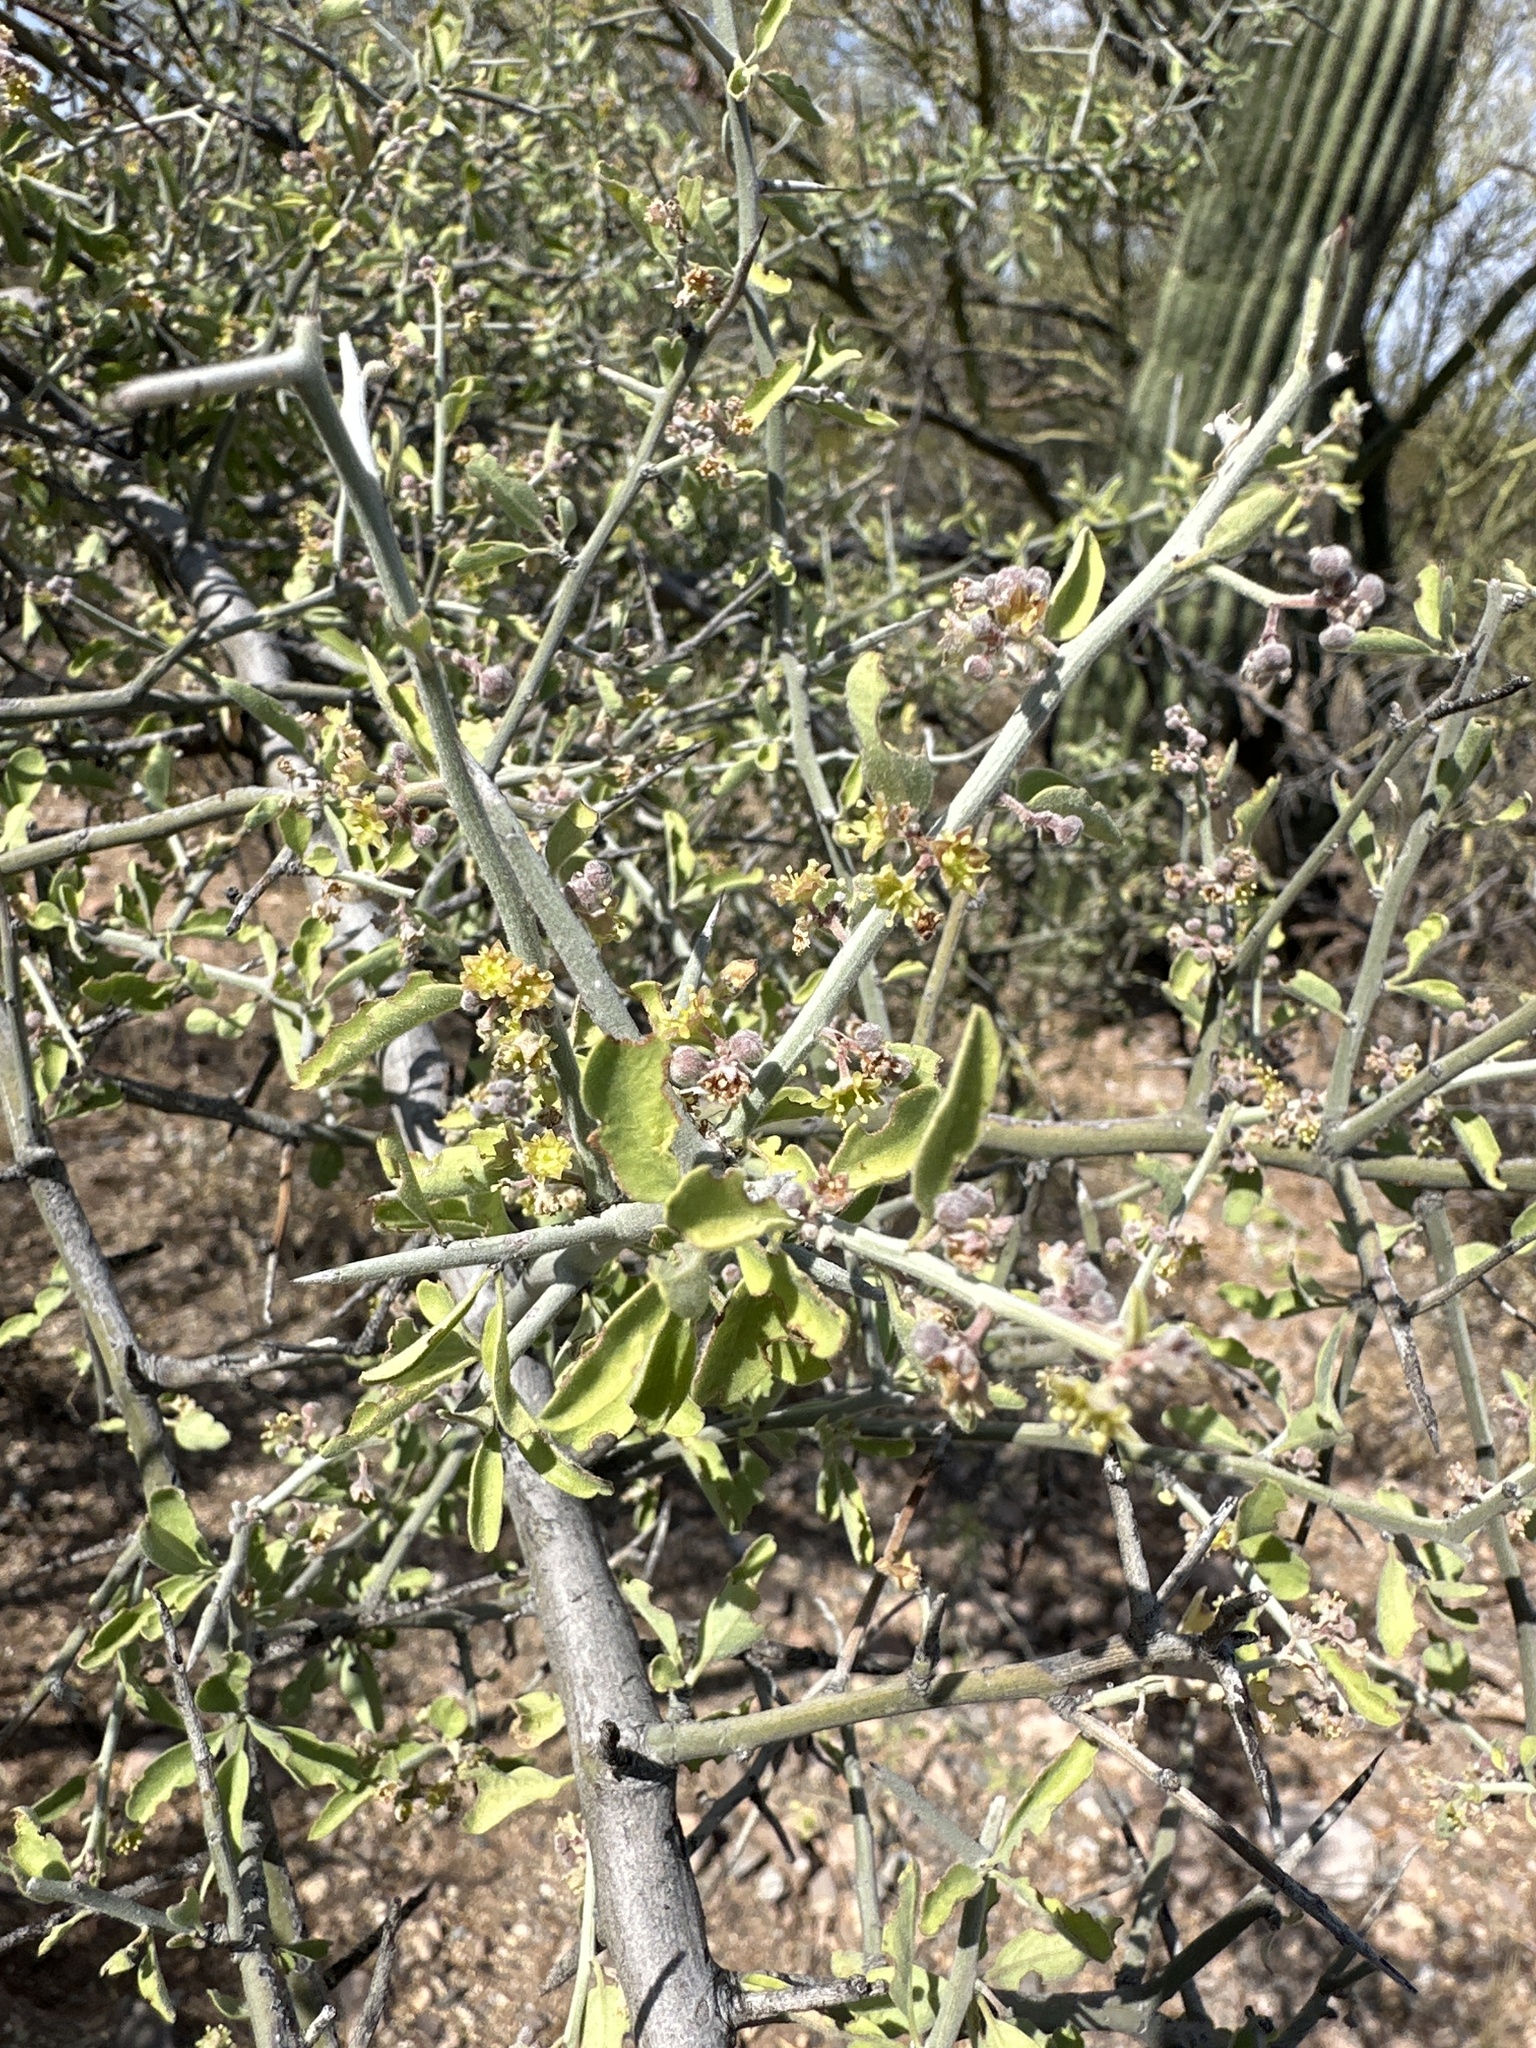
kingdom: Plantae
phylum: Tracheophyta
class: Magnoliopsida
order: Rosales
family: Rhamnaceae
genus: Sarcomphalus
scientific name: Sarcomphalus obtusifolius
